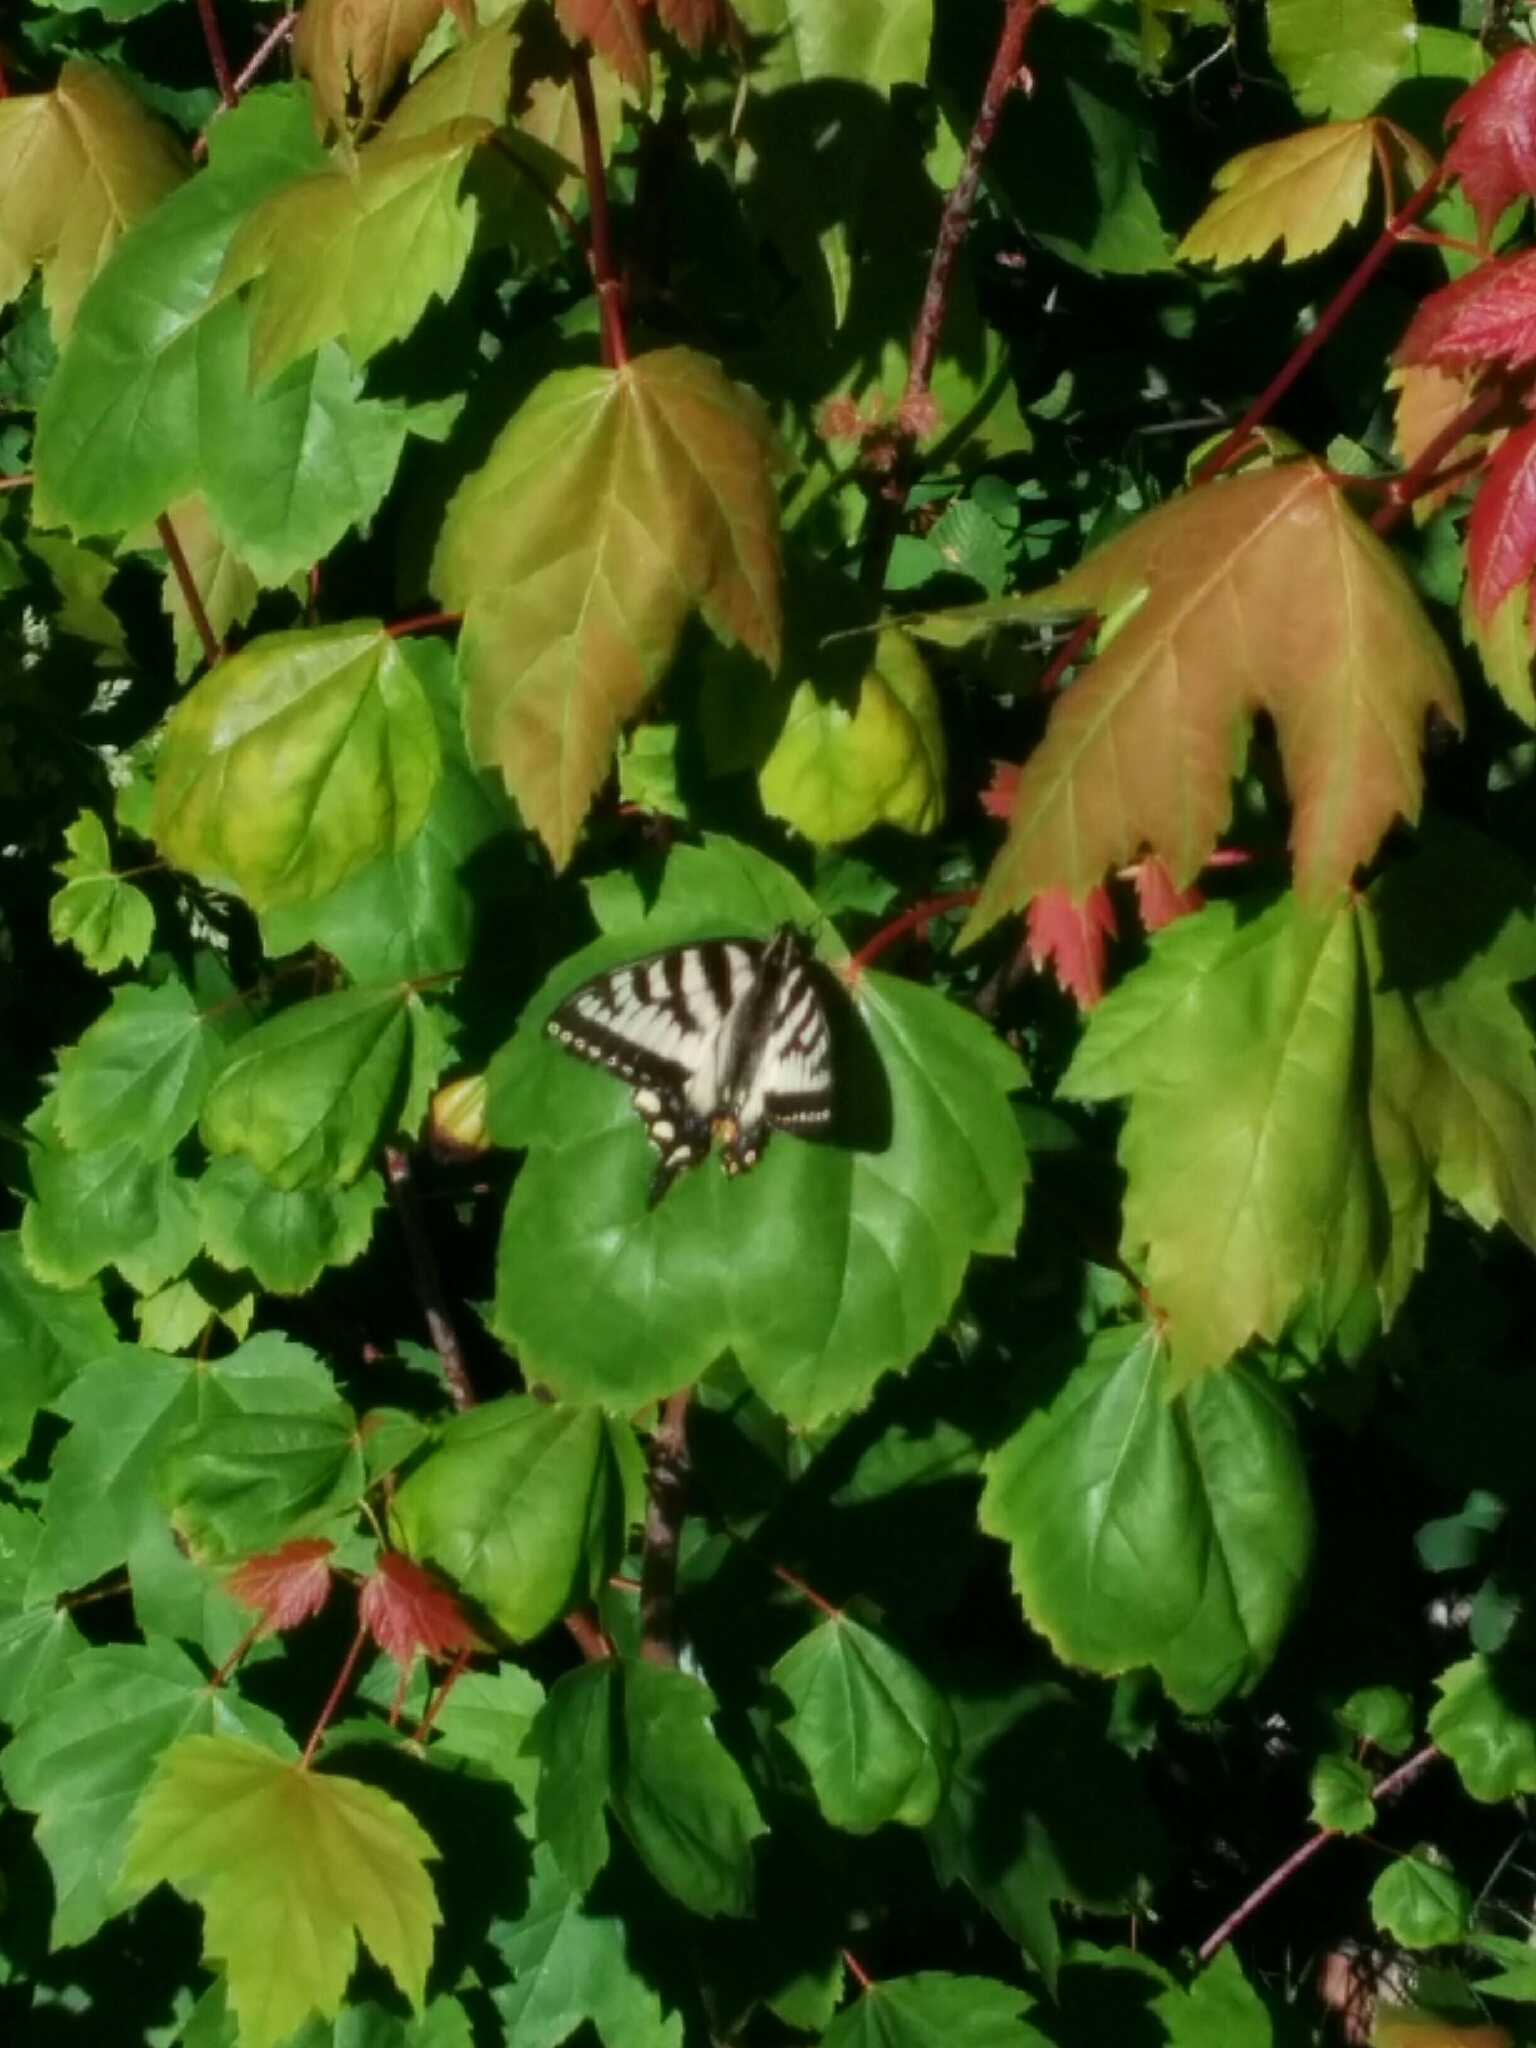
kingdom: Animalia
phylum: Arthropoda
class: Insecta
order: Lepidoptera
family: Papilionidae
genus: Papilio
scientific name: Papilio canadensis
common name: Canadian tiger swallowtail
